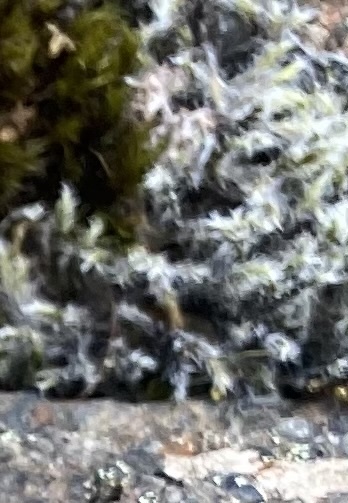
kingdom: Plantae
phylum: Bryophyta
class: Bryopsida
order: Grimmiales
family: Grimmiaceae
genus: Racomitrium
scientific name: Racomitrium lanuginosum
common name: Hoary rock moss
